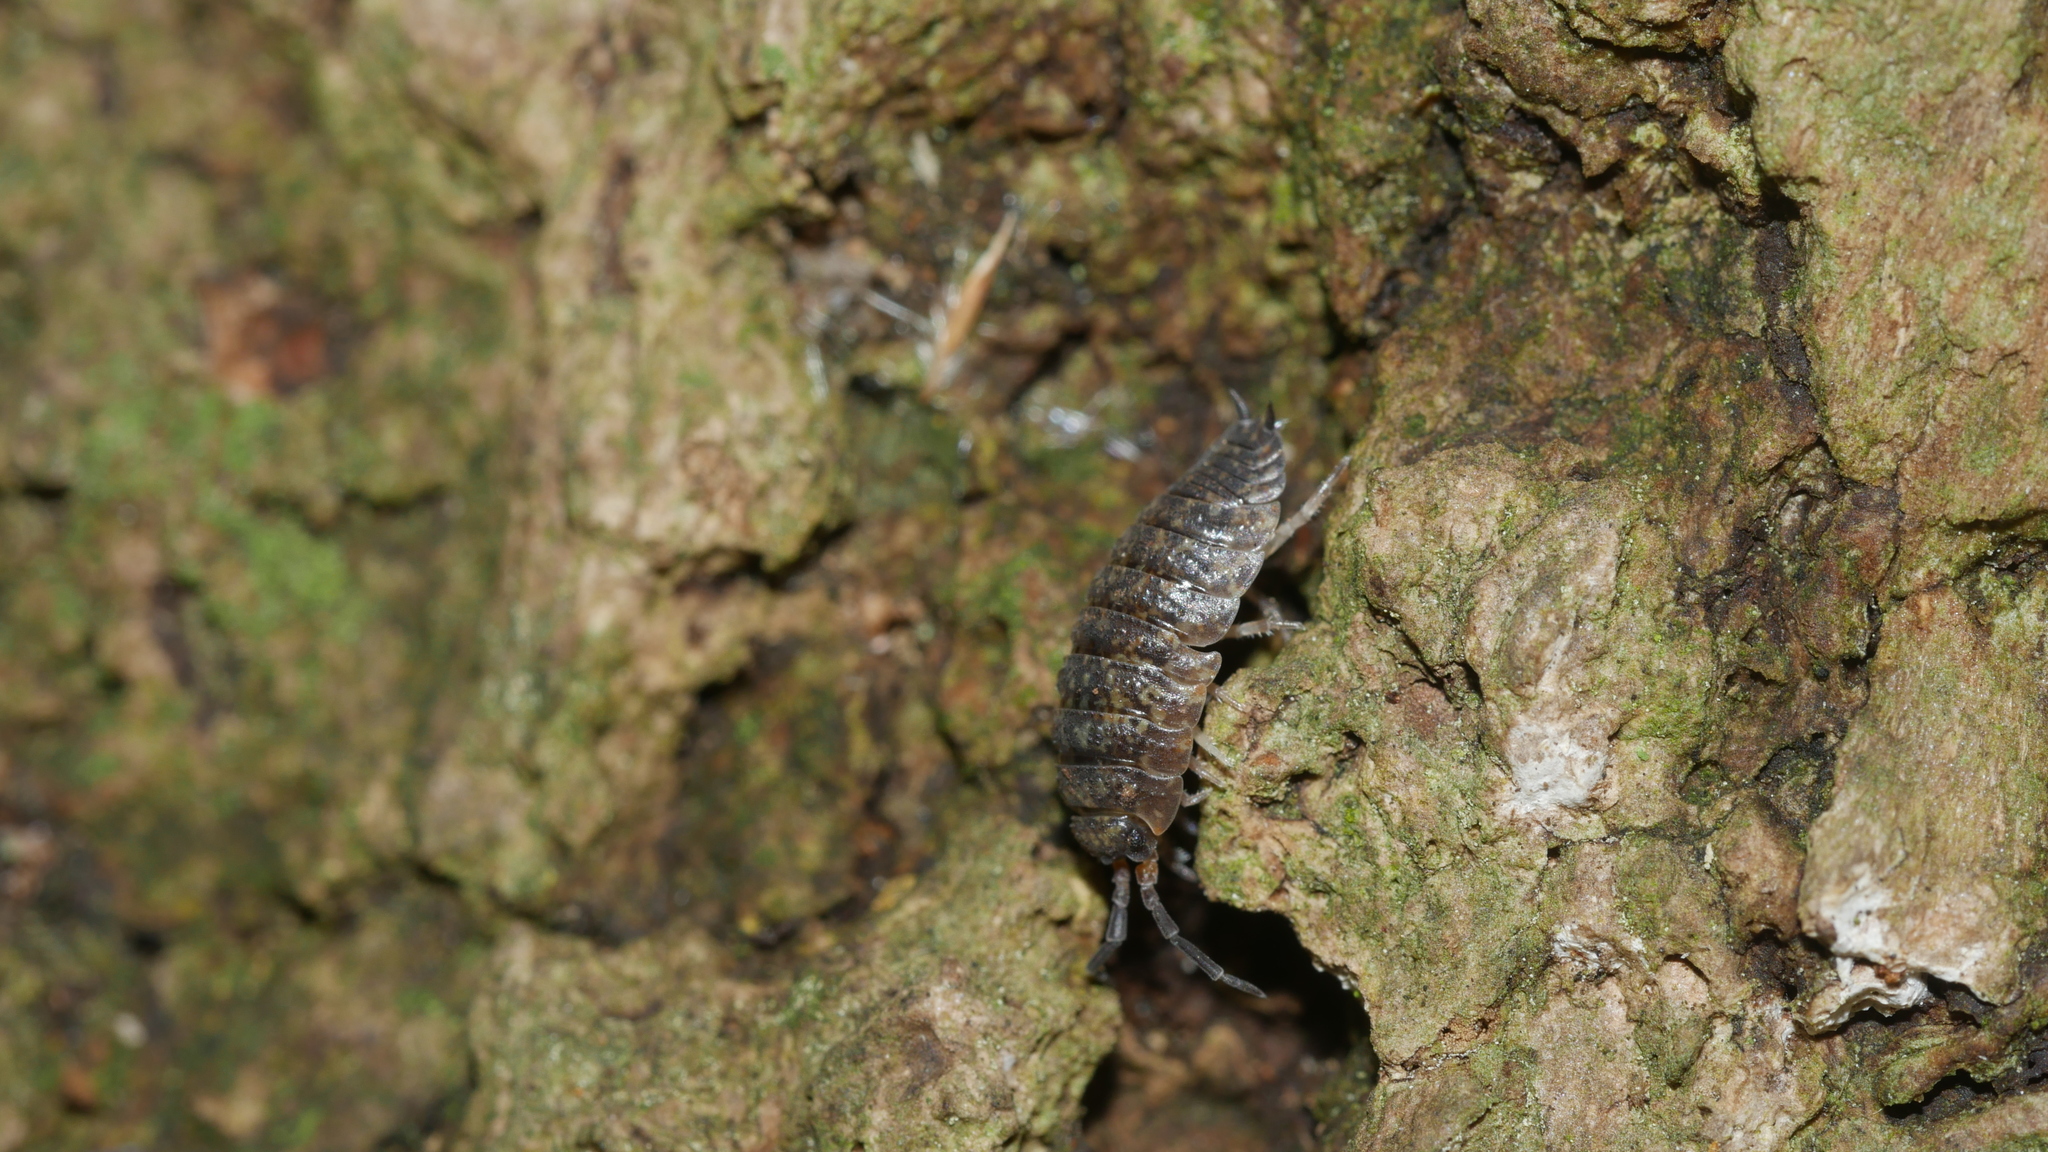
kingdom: Animalia
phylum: Arthropoda
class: Malacostraca
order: Isopoda
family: Porcellionidae
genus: Porcellio
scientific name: Porcellio scaber
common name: Common rough woodlouse
